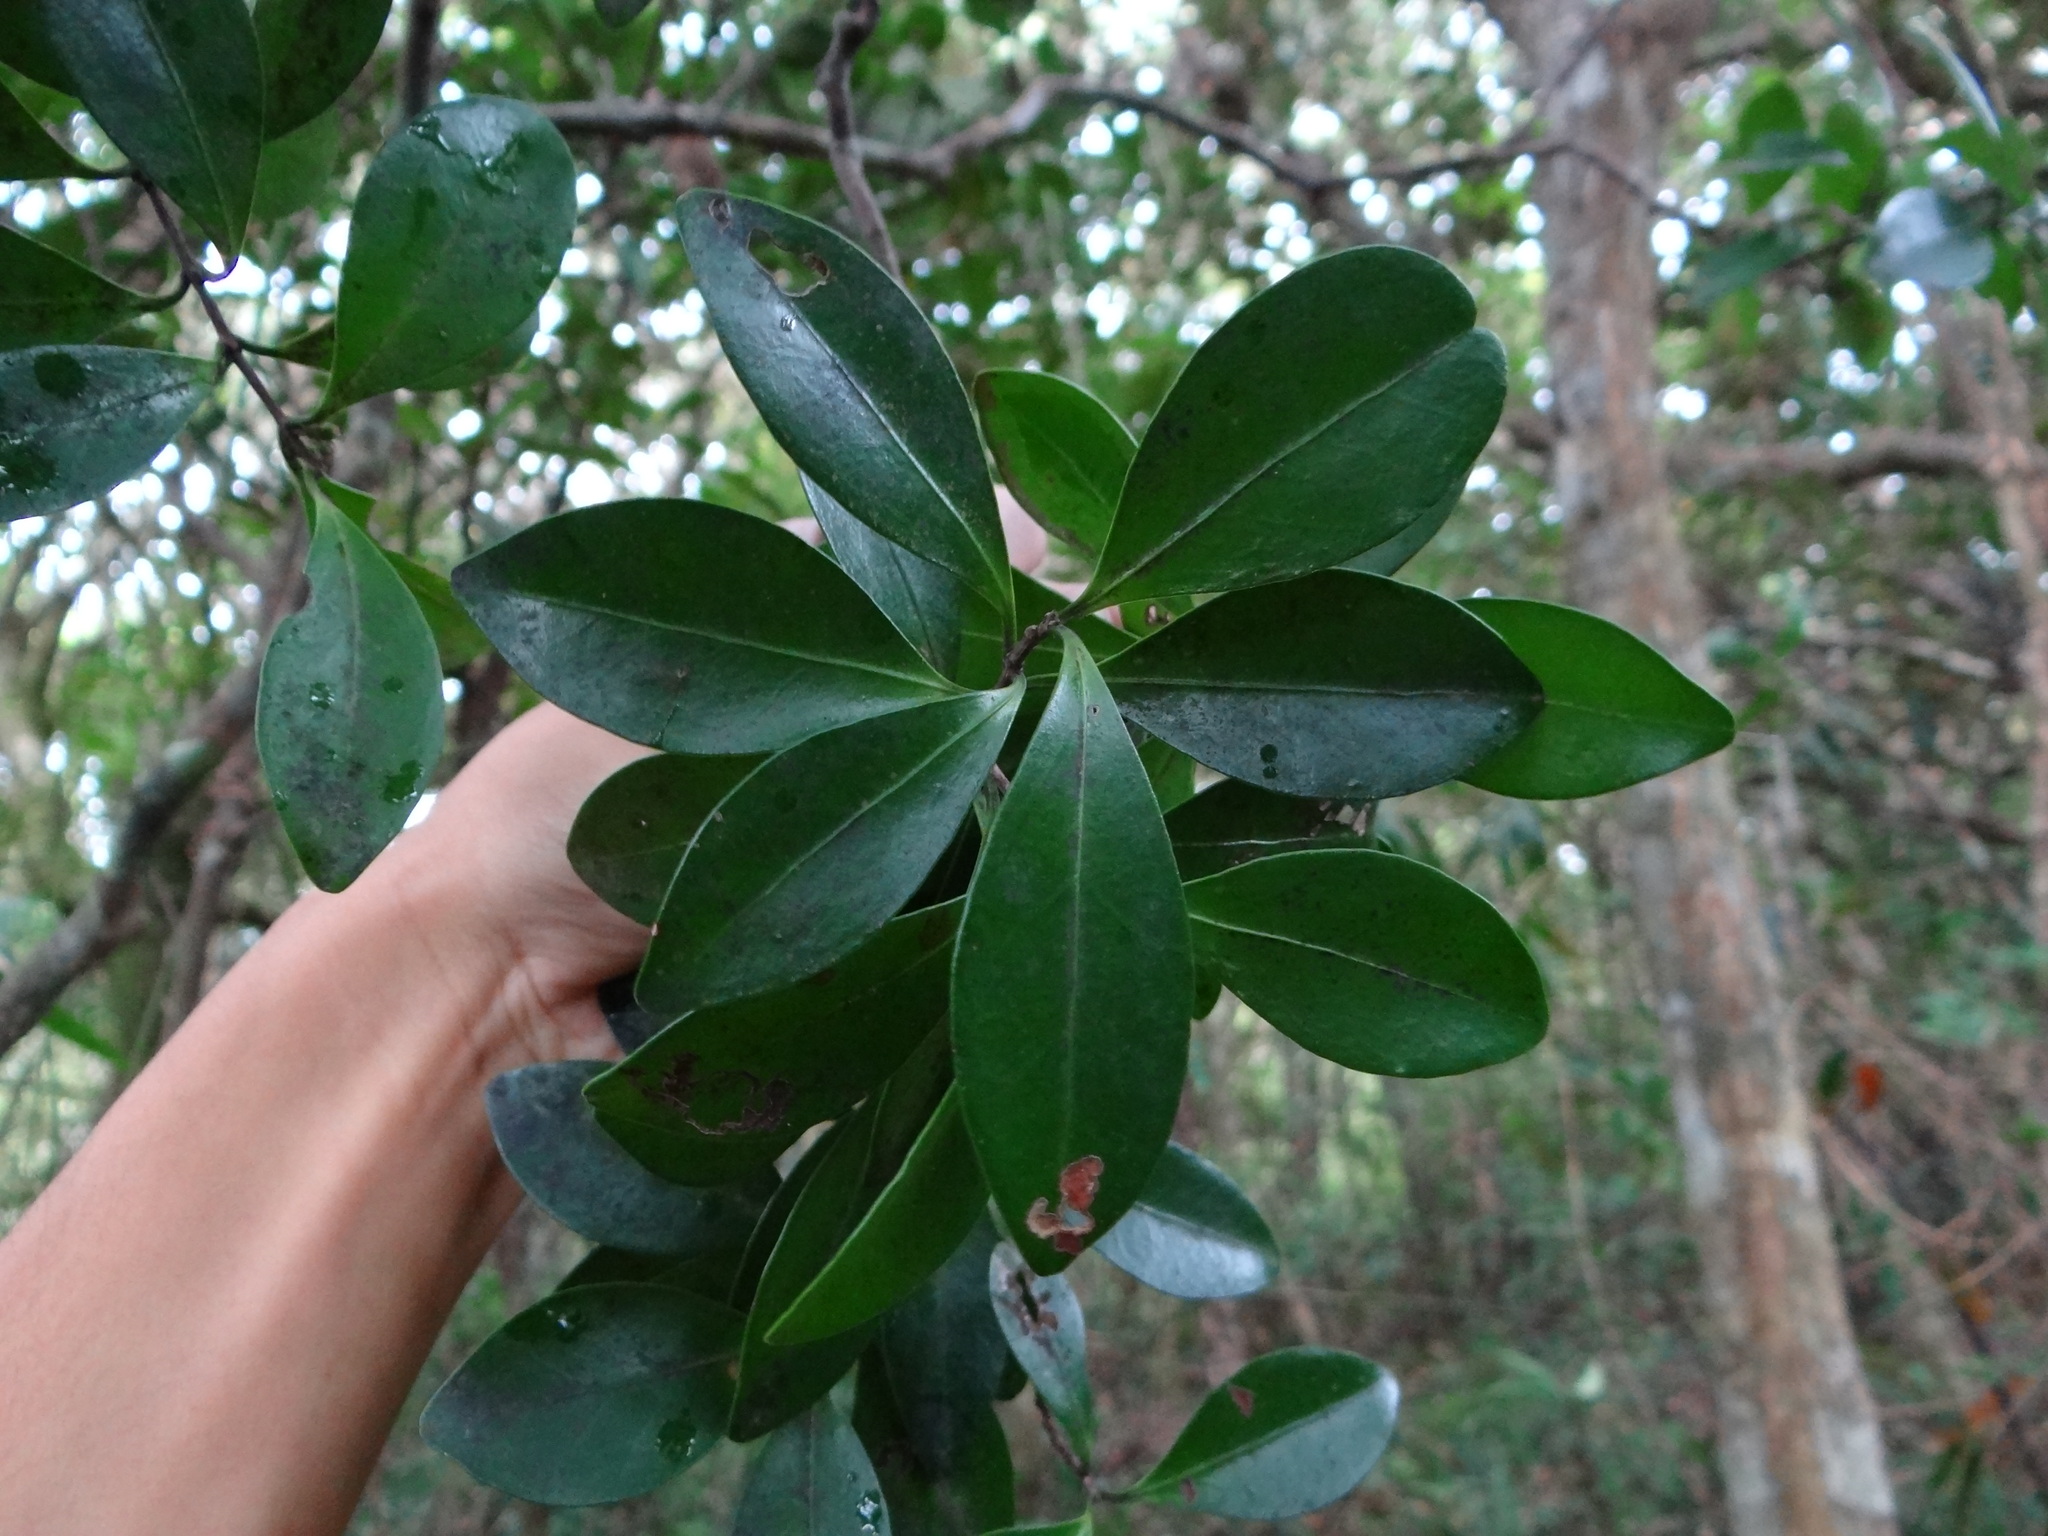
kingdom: Plantae
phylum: Tracheophyta
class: Magnoliopsida
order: Celastrales
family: Celastraceae
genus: Microtropis
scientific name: Microtropis japonica
